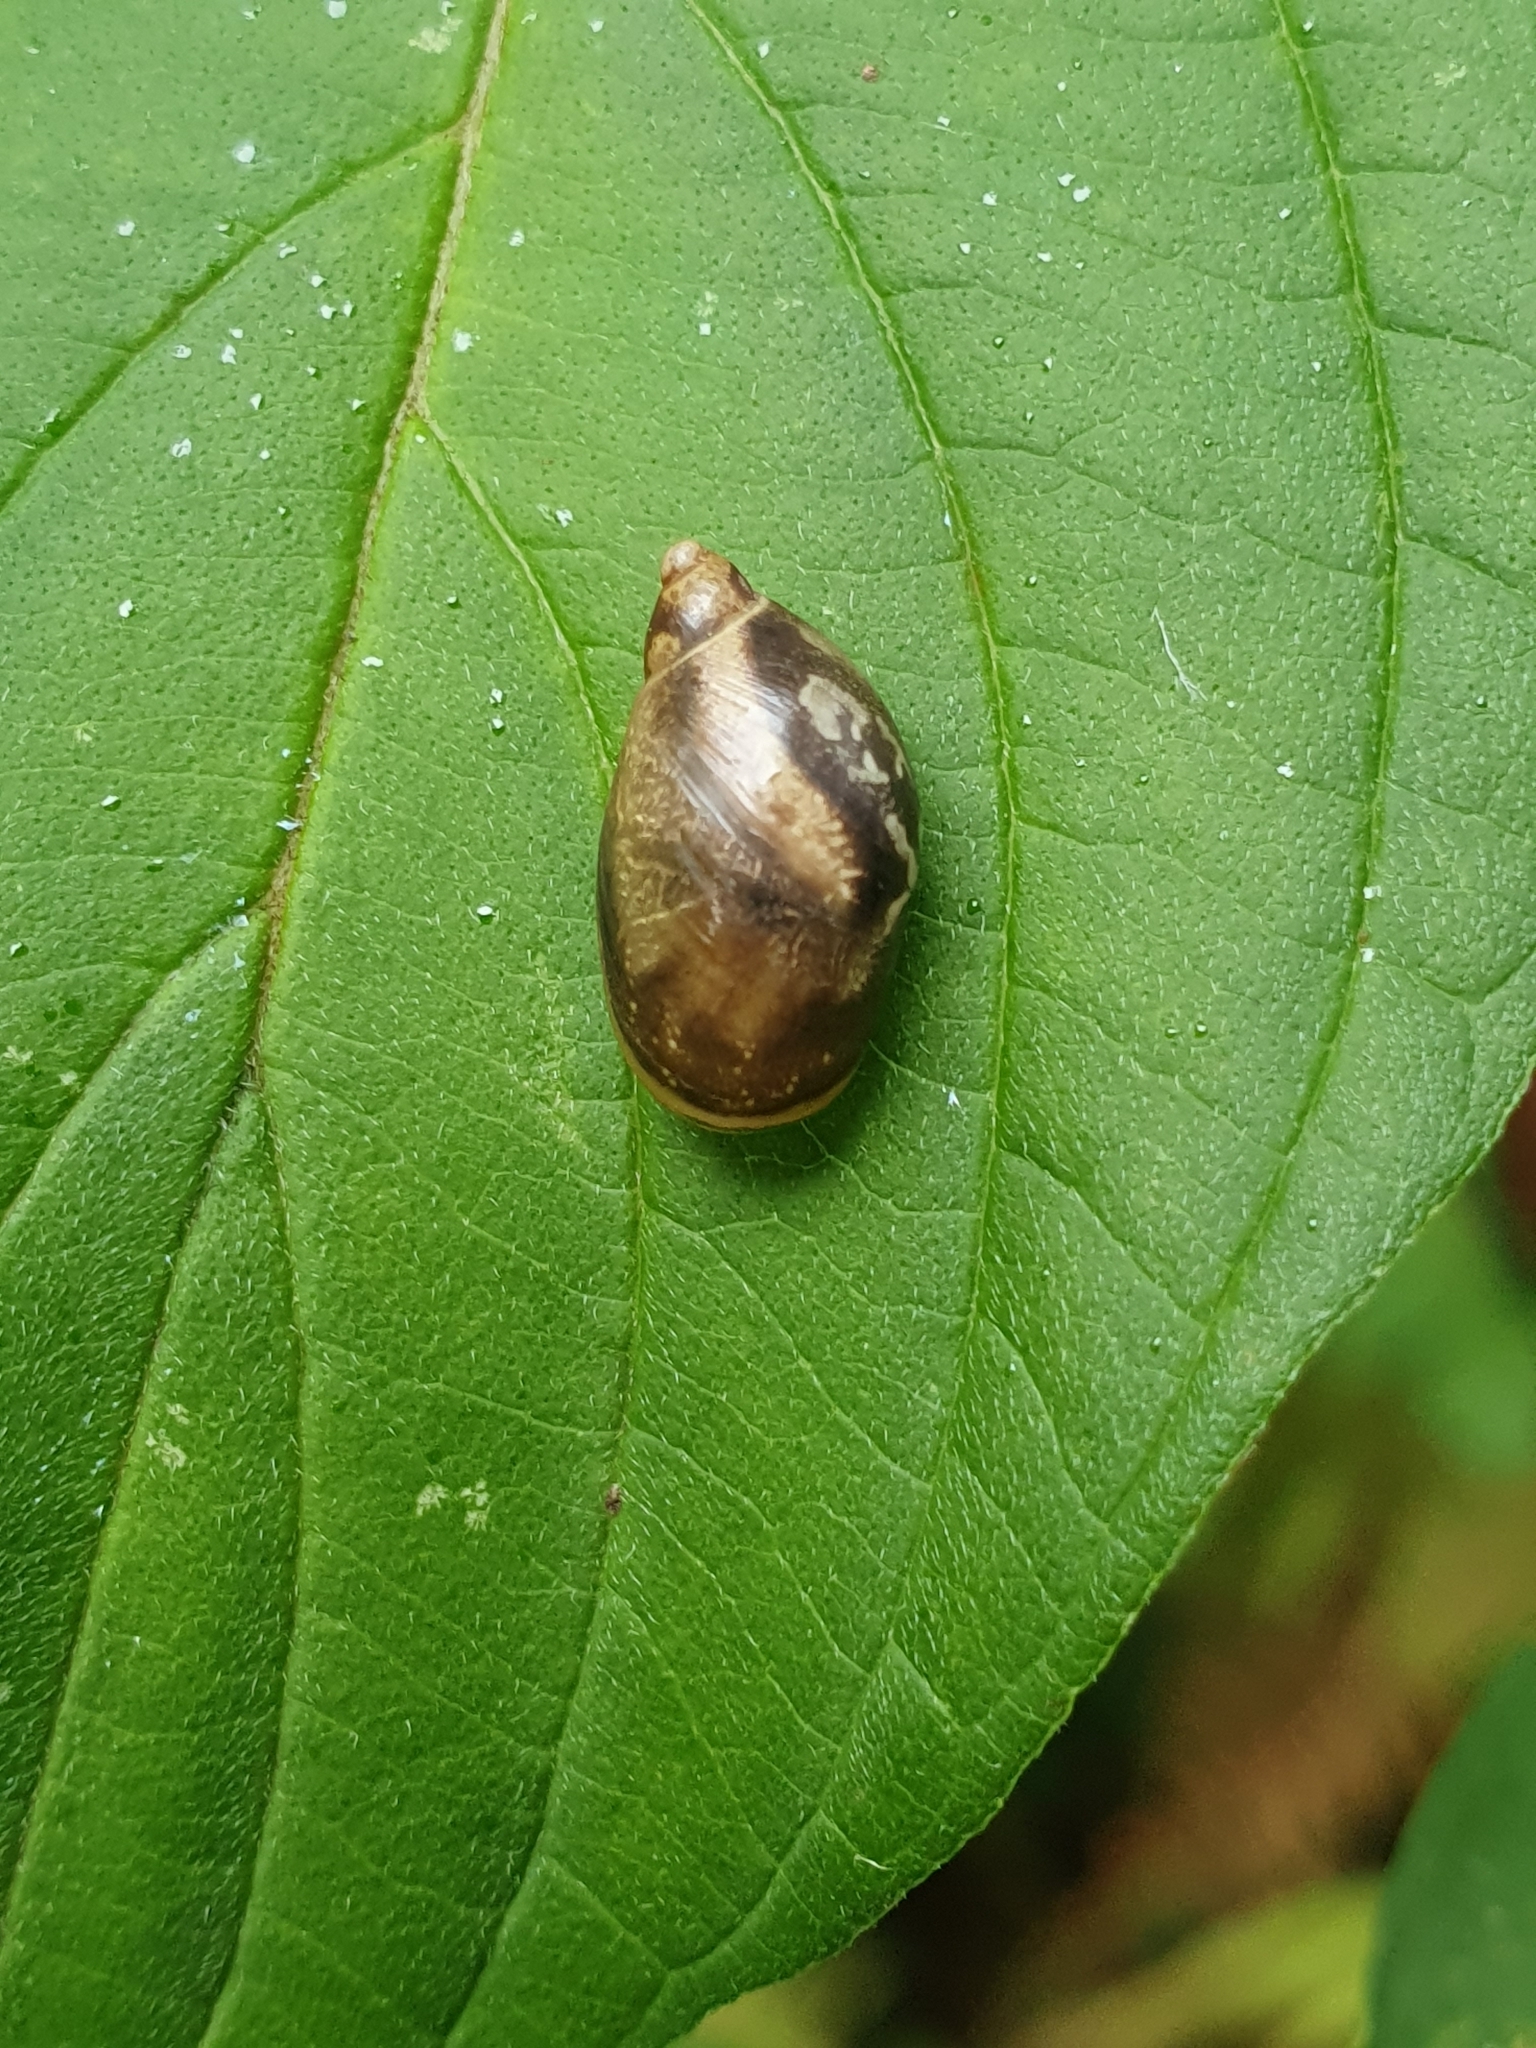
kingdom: Animalia
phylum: Mollusca
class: Gastropoda
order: Stylommatophora
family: Succineidae
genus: Succinea
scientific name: Succinea putris
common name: European ambersnail
